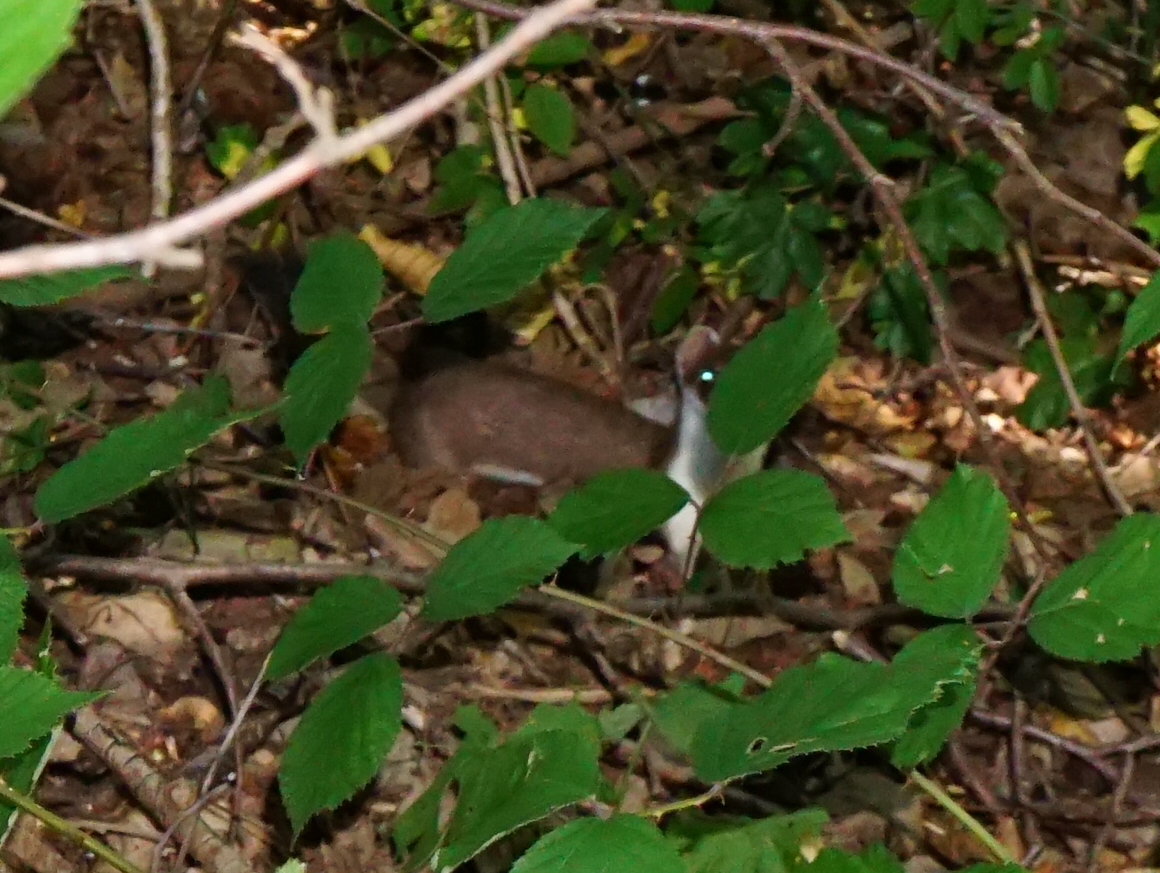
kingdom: Animalia
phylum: Chordata
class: Mammalia
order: Carnivora
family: Mustelidae
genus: Mustela
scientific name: Mustela erminea
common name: Stoat
